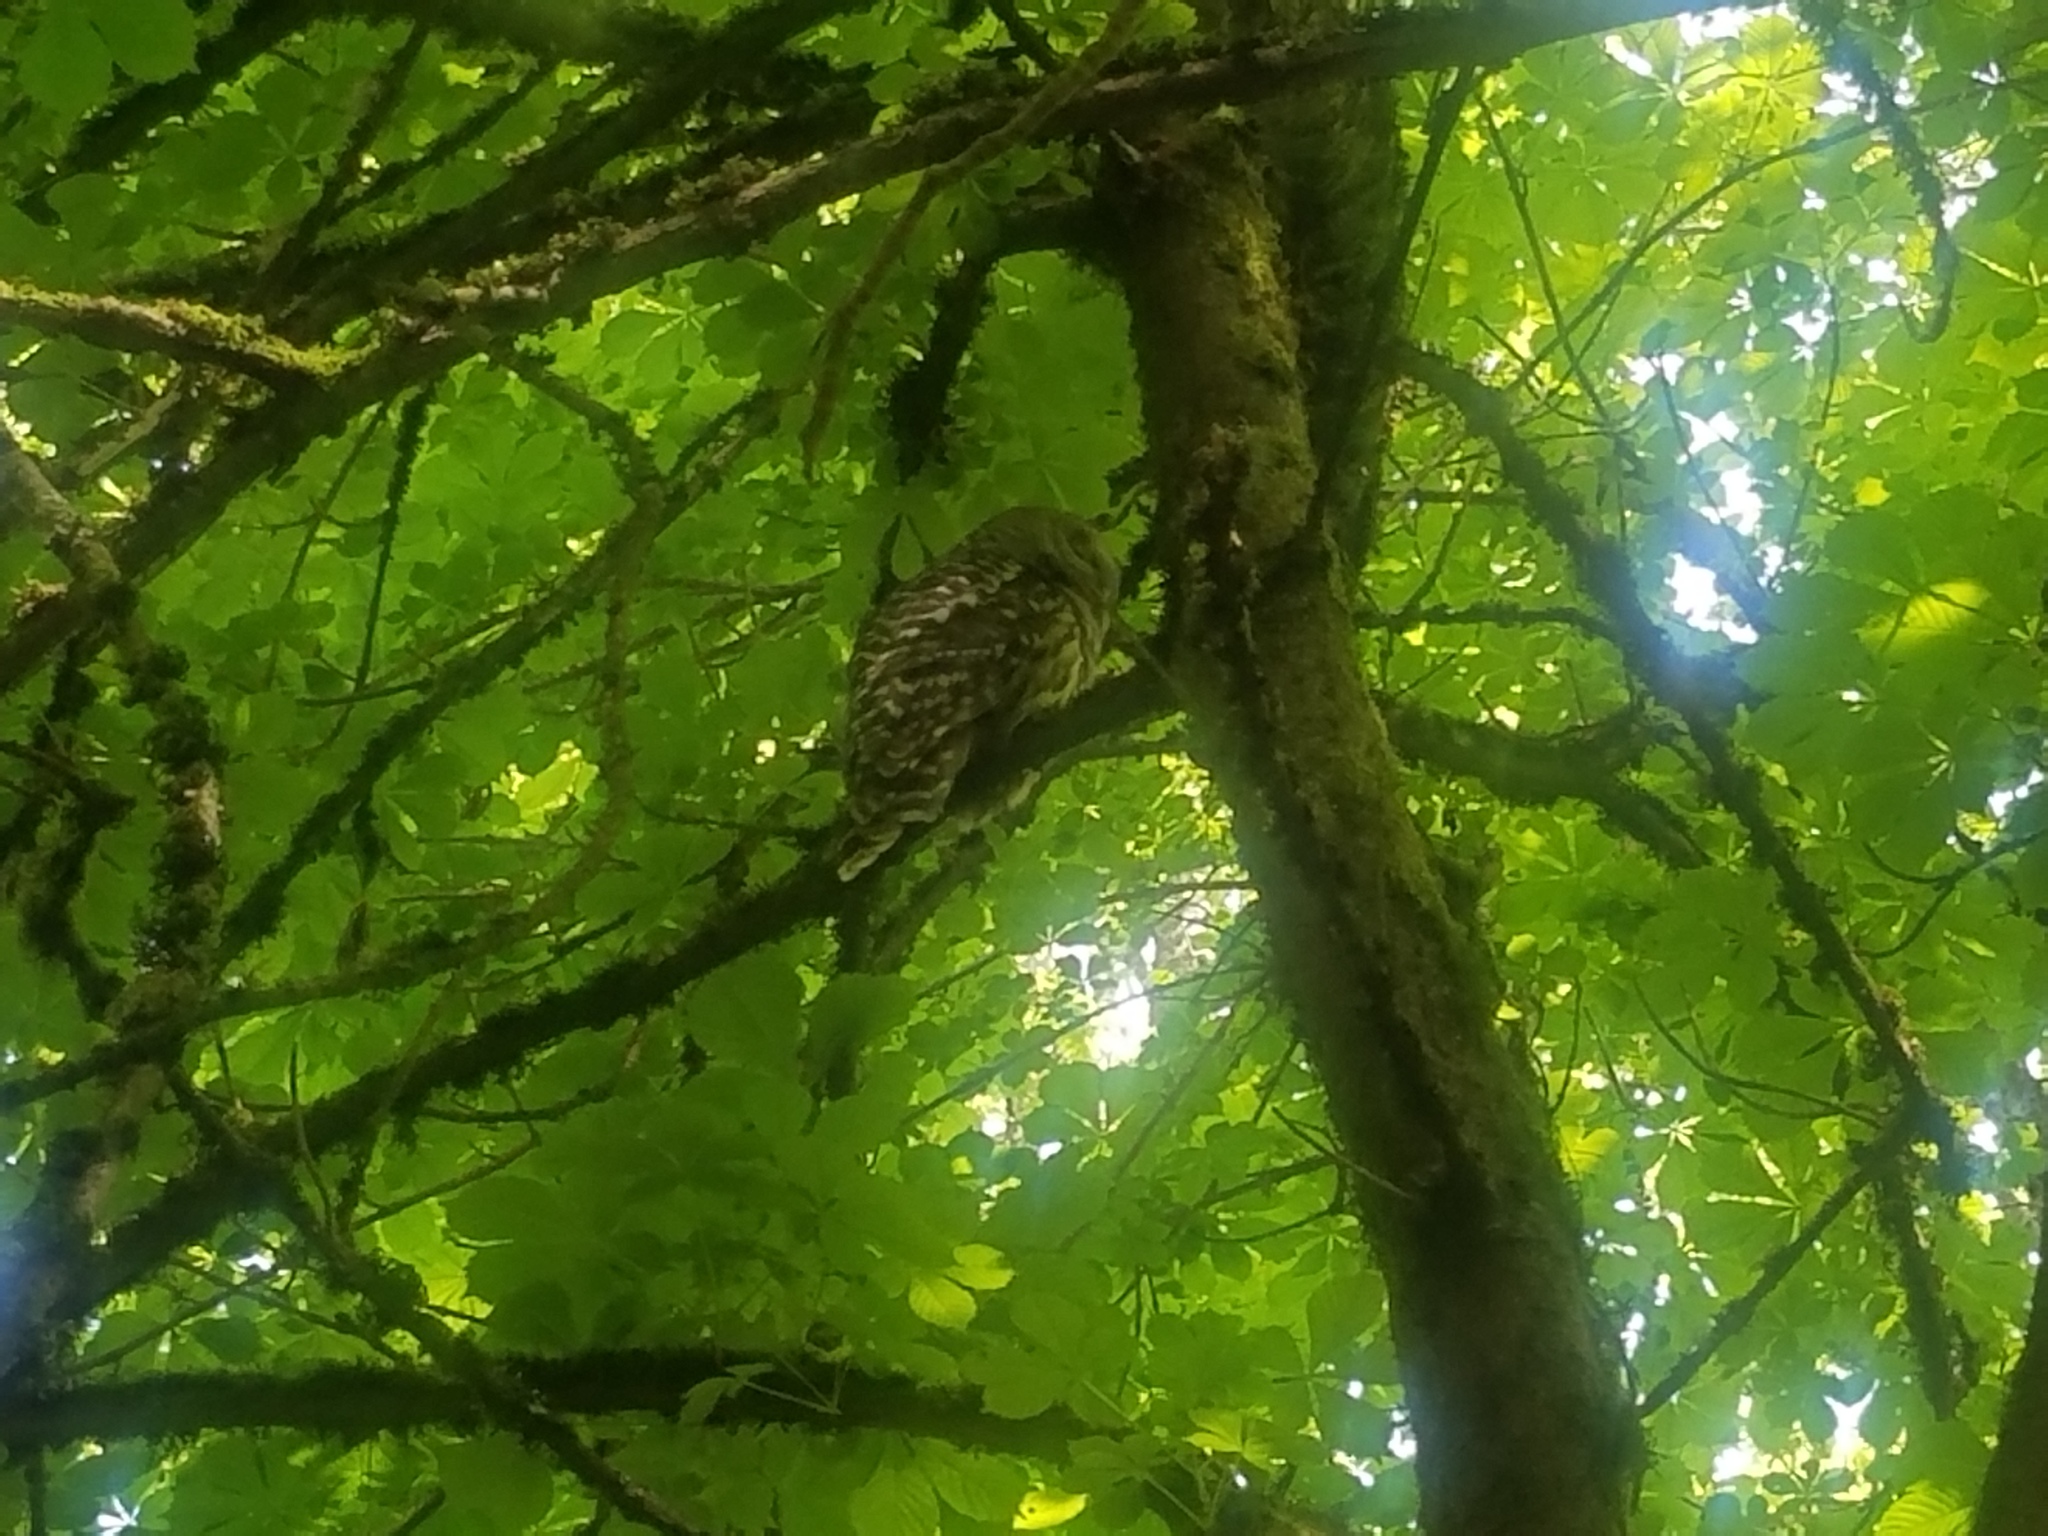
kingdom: Animalia
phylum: Chordata
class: Aves
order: Strigiformes
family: Strigidae
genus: Strix
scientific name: Strix varia
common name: Barred owl
